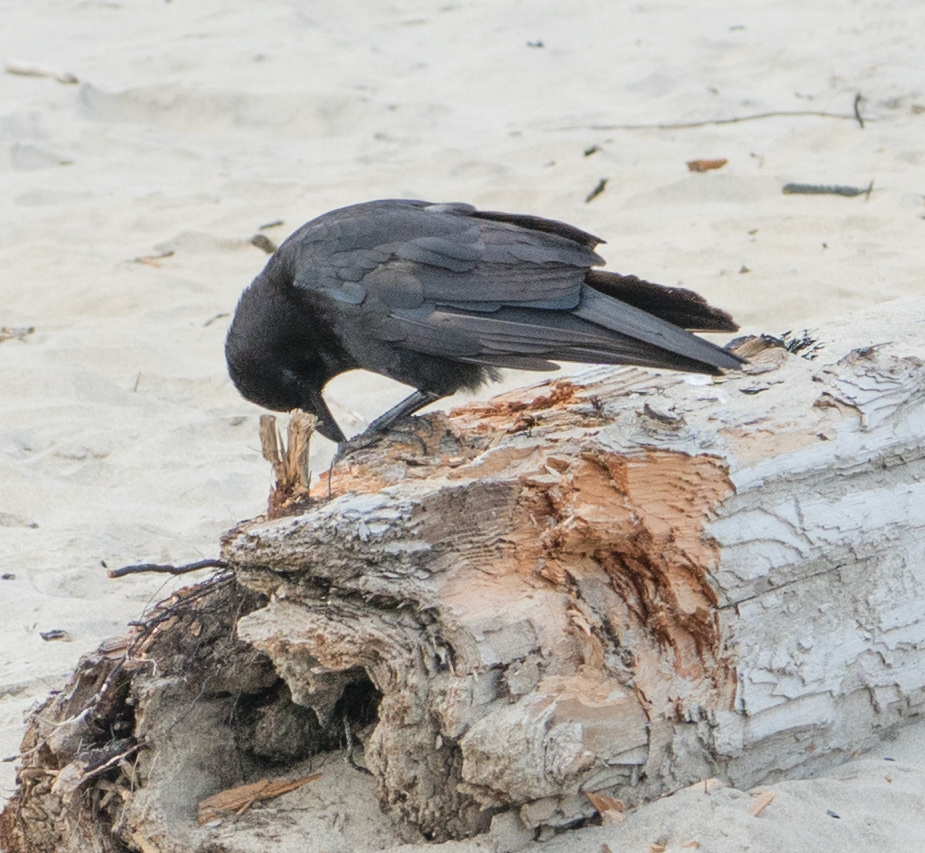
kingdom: Animalia
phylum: Chordata
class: Aves
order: Passeriformes
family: Corvidae
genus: Corvus
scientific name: Corvus brachyrhynchos
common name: American crow
